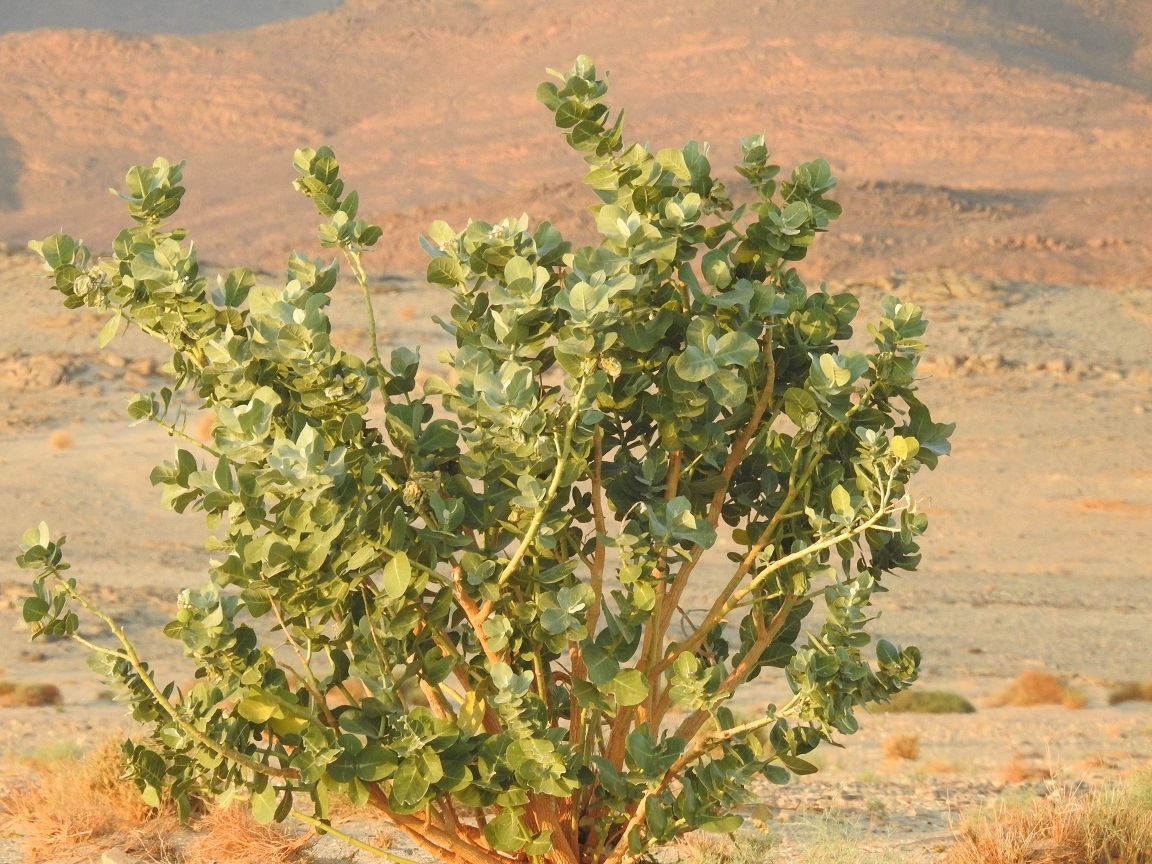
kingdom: Plantae
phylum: Tracheophyta
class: Magnoliopsida
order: Gentianales
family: Apocynaceae
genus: Calotropis
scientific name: Calotropis procera
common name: Roostertree
